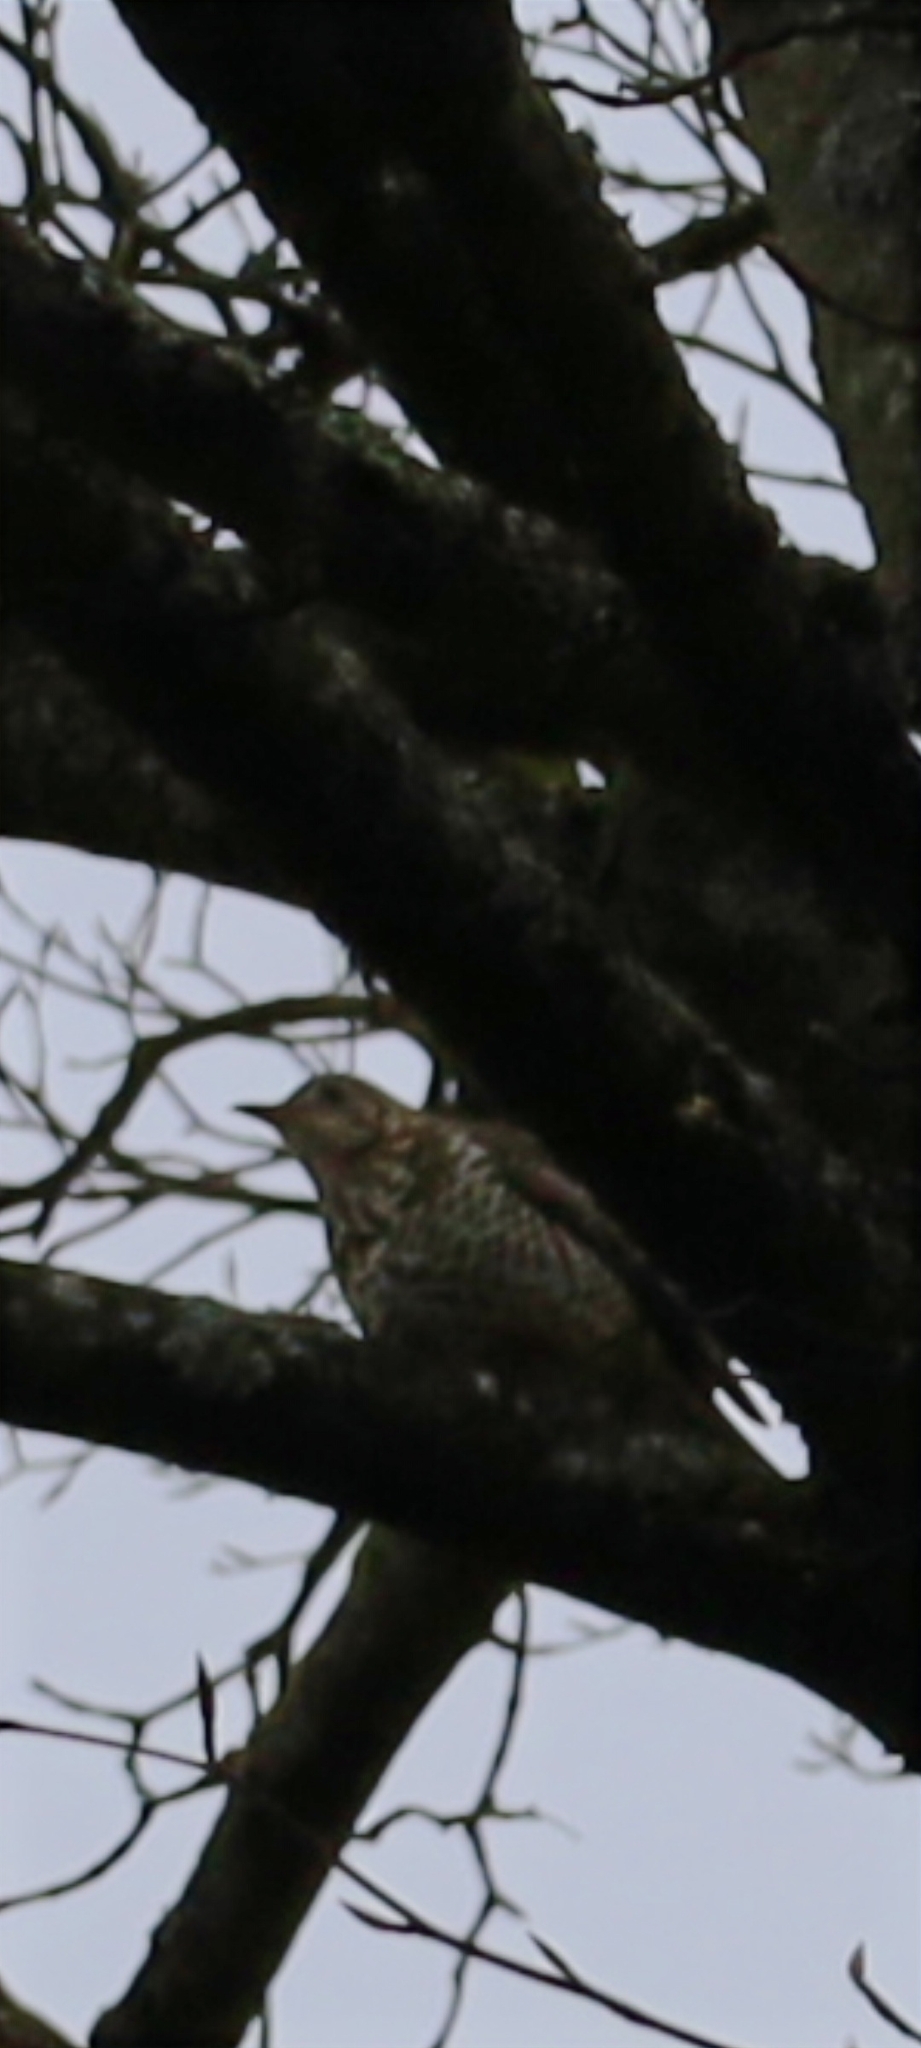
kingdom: Animalia
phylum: Chordata
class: Aves
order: Passeriformes
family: Turdidae
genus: Turdus
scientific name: Turdus viscivorus
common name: Mistle thrush
